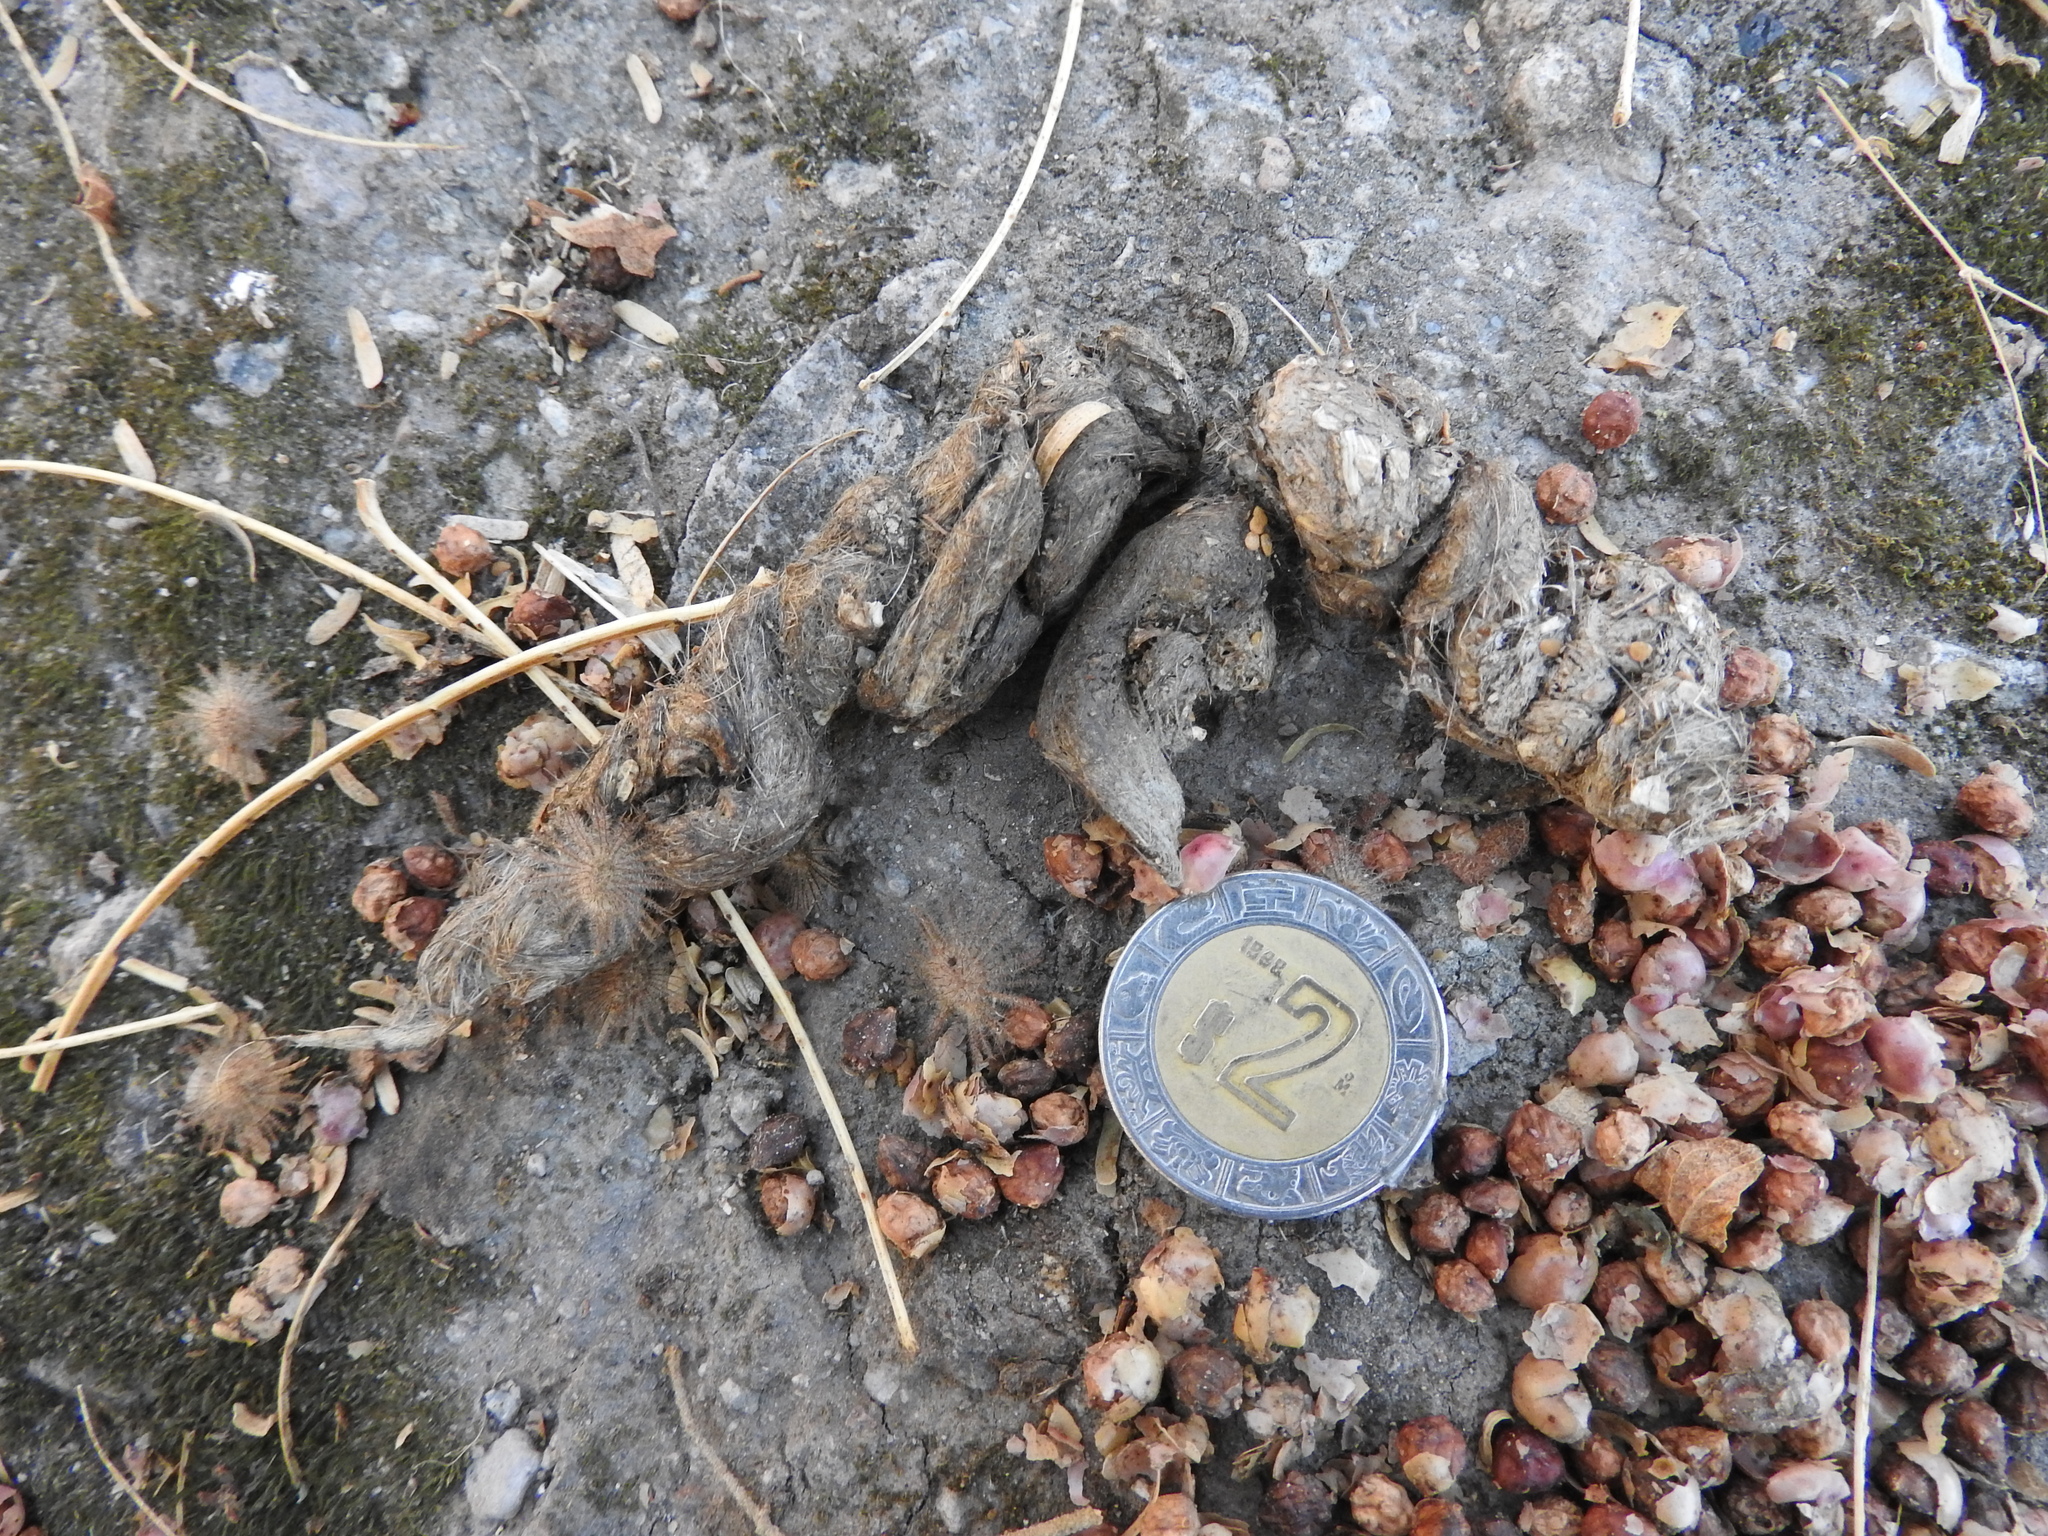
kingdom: Animalia
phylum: Chordata
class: Mammalia
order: Carnivora
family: Felidae
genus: Lynx
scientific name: Lynx rufus
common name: Bobcat
